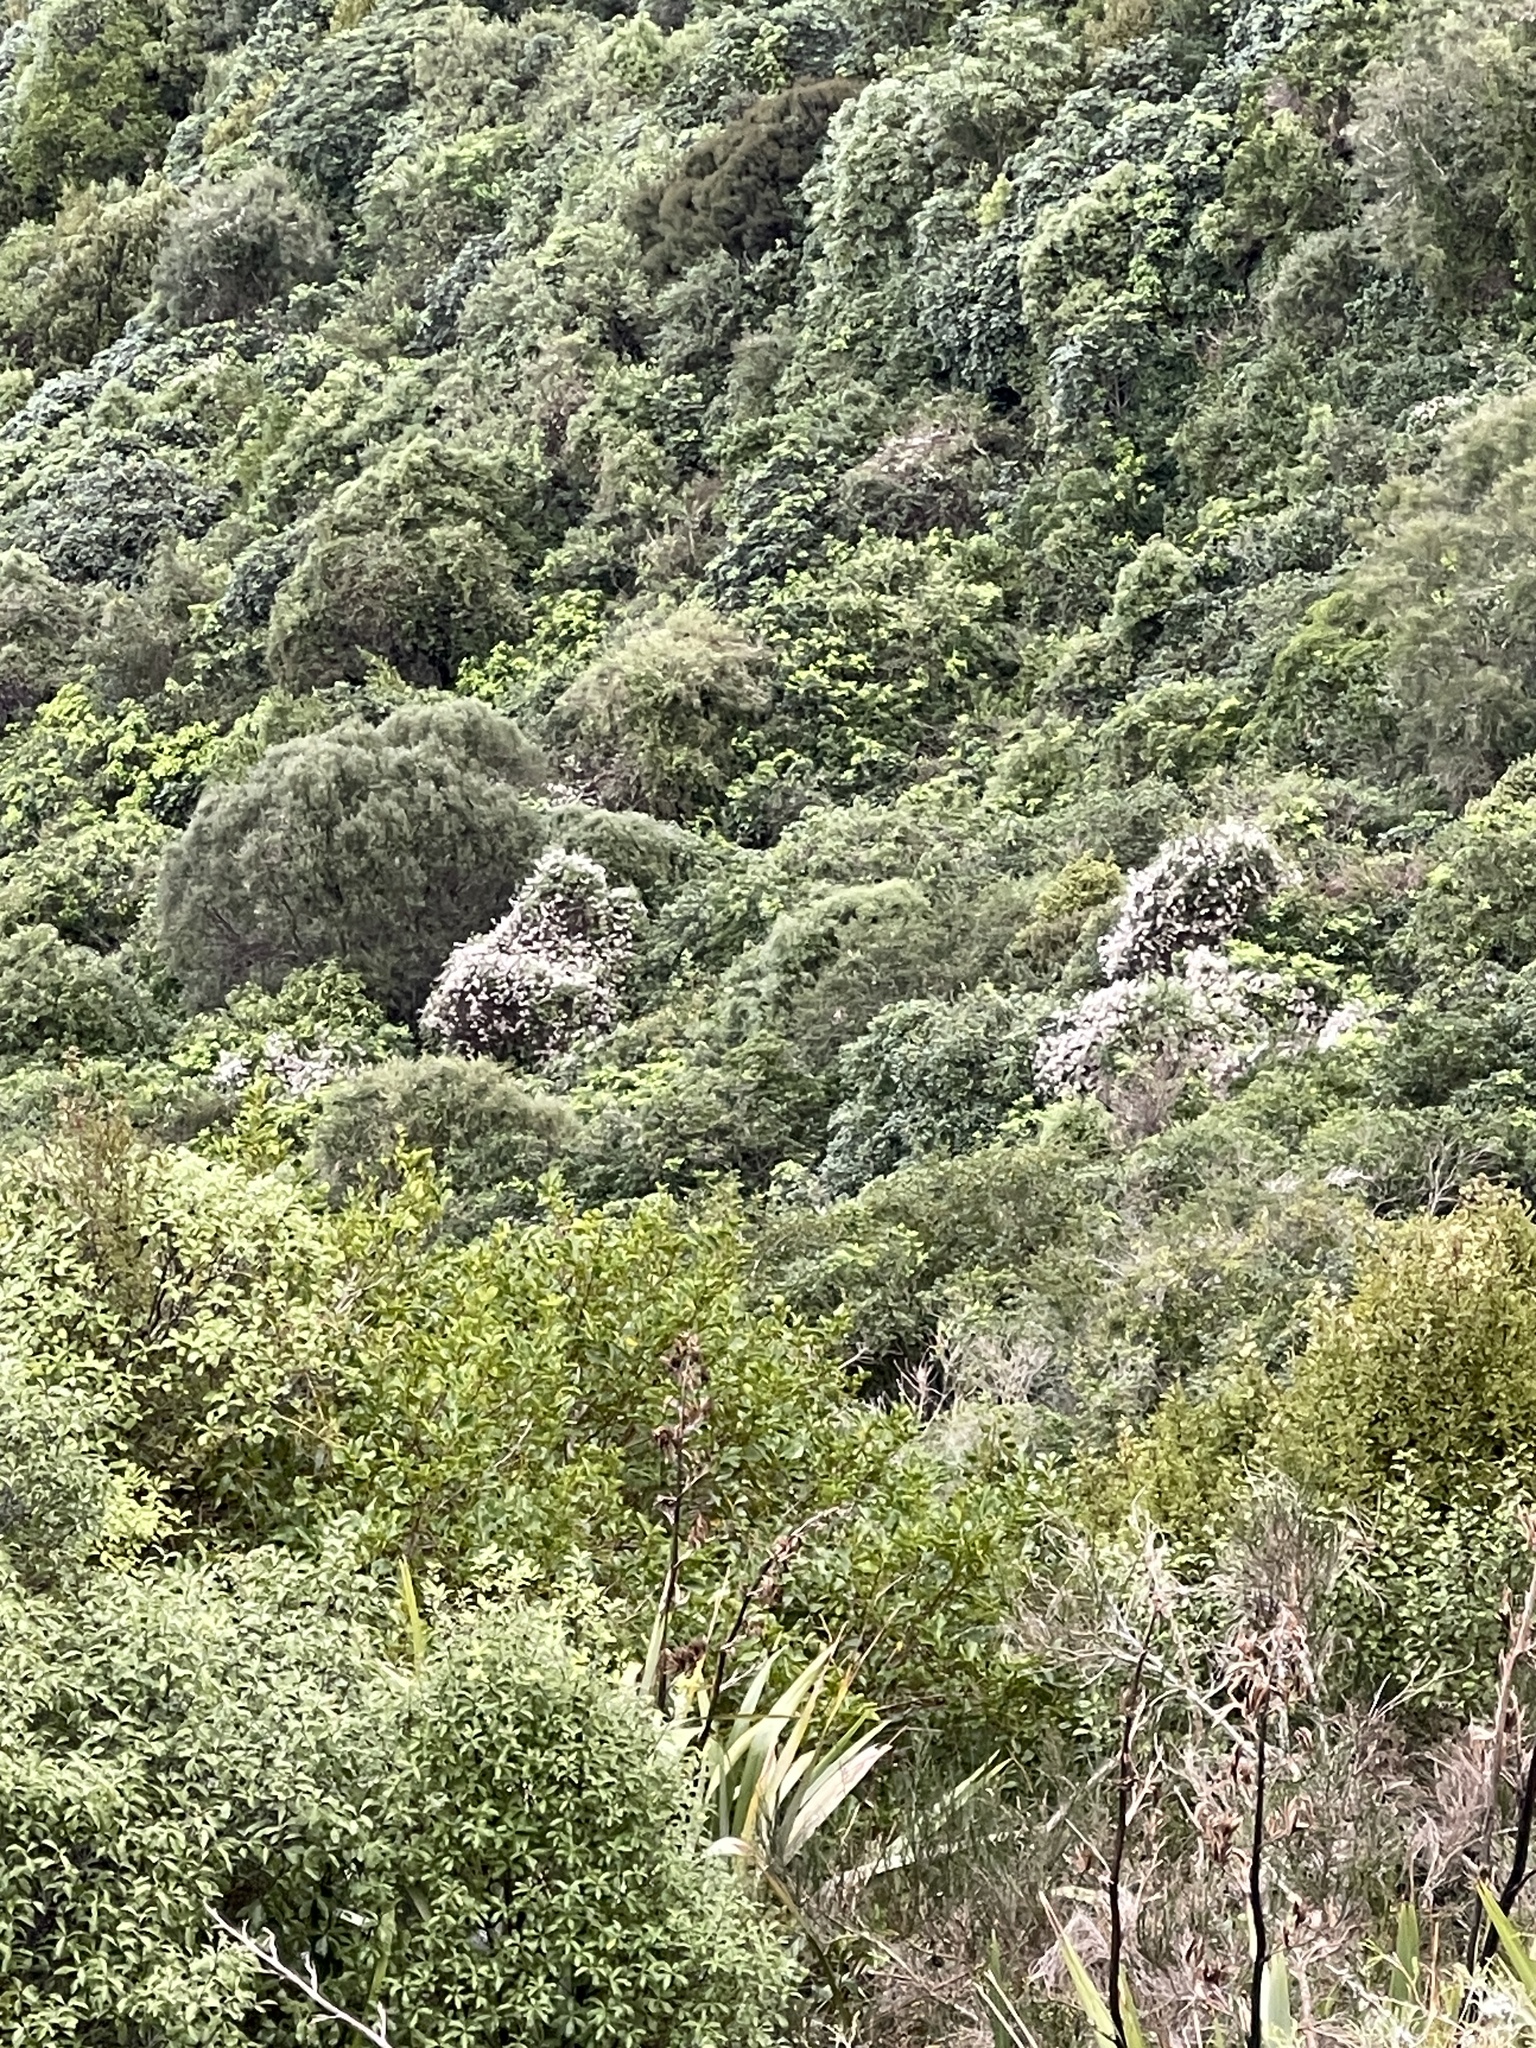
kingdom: Plantae
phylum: Tracheophyta
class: Magnoliopsida
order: Ranunculales
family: Ranunculaceae
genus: Clematis
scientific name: Clematis vitalba
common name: Evergreen clematis
